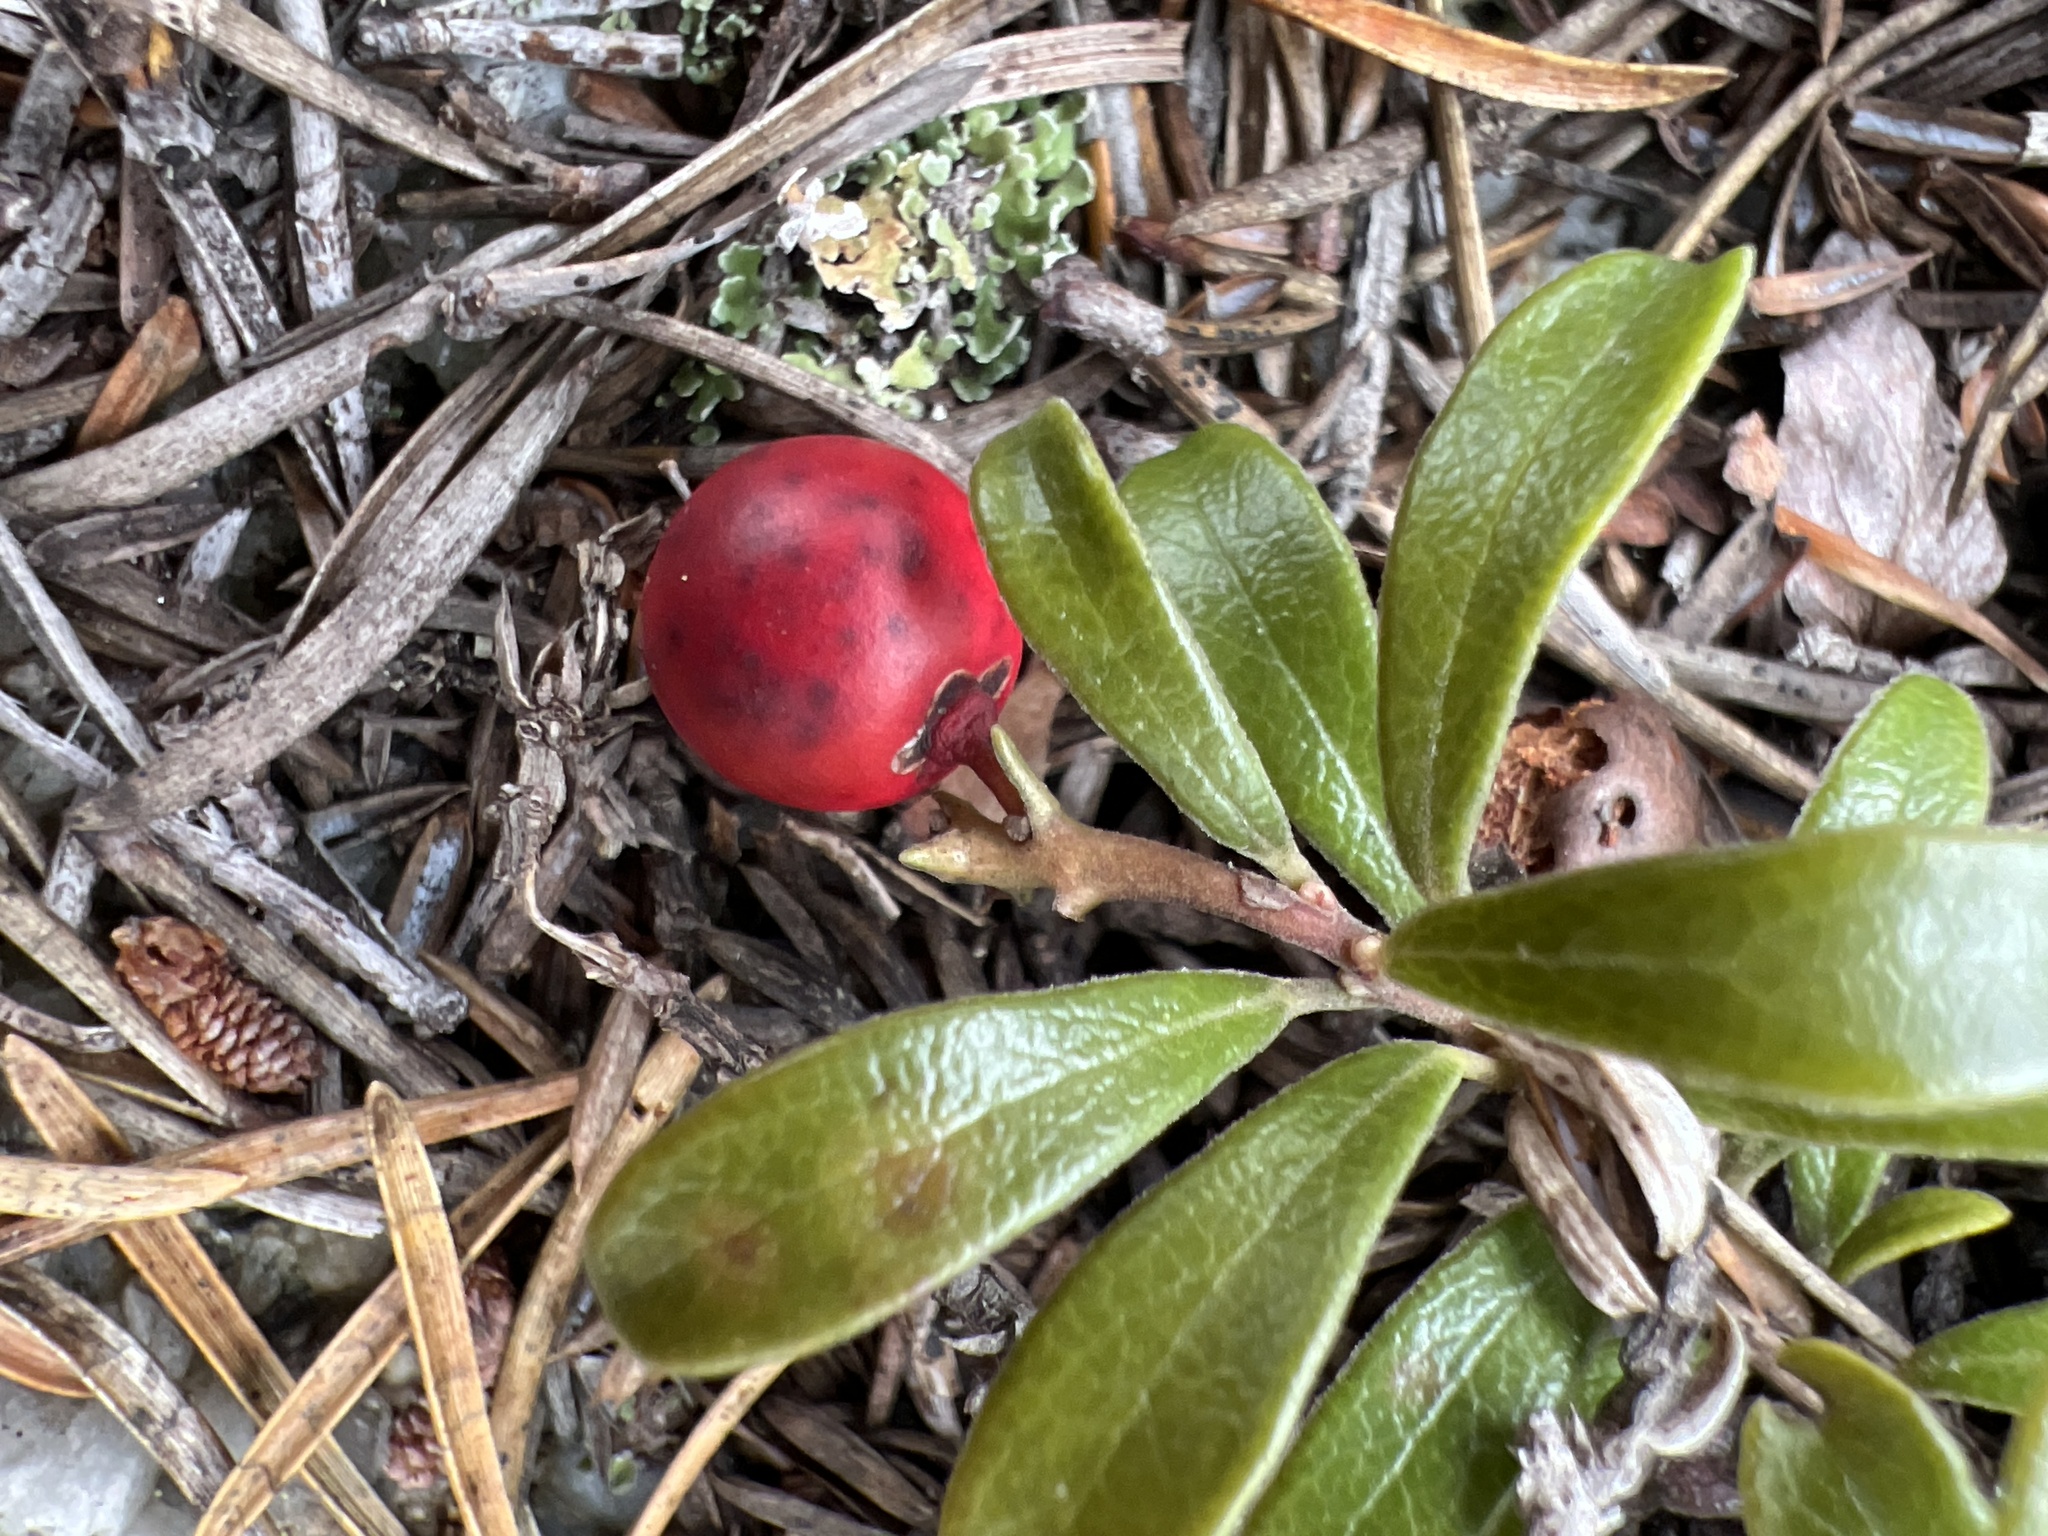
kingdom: Plantae
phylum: Tracheophyta
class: Magnoliopsida
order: Ericales
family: Ericaceae
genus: Arctostaphylos
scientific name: Arctostaphylos uva-ursi
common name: Bearberry
